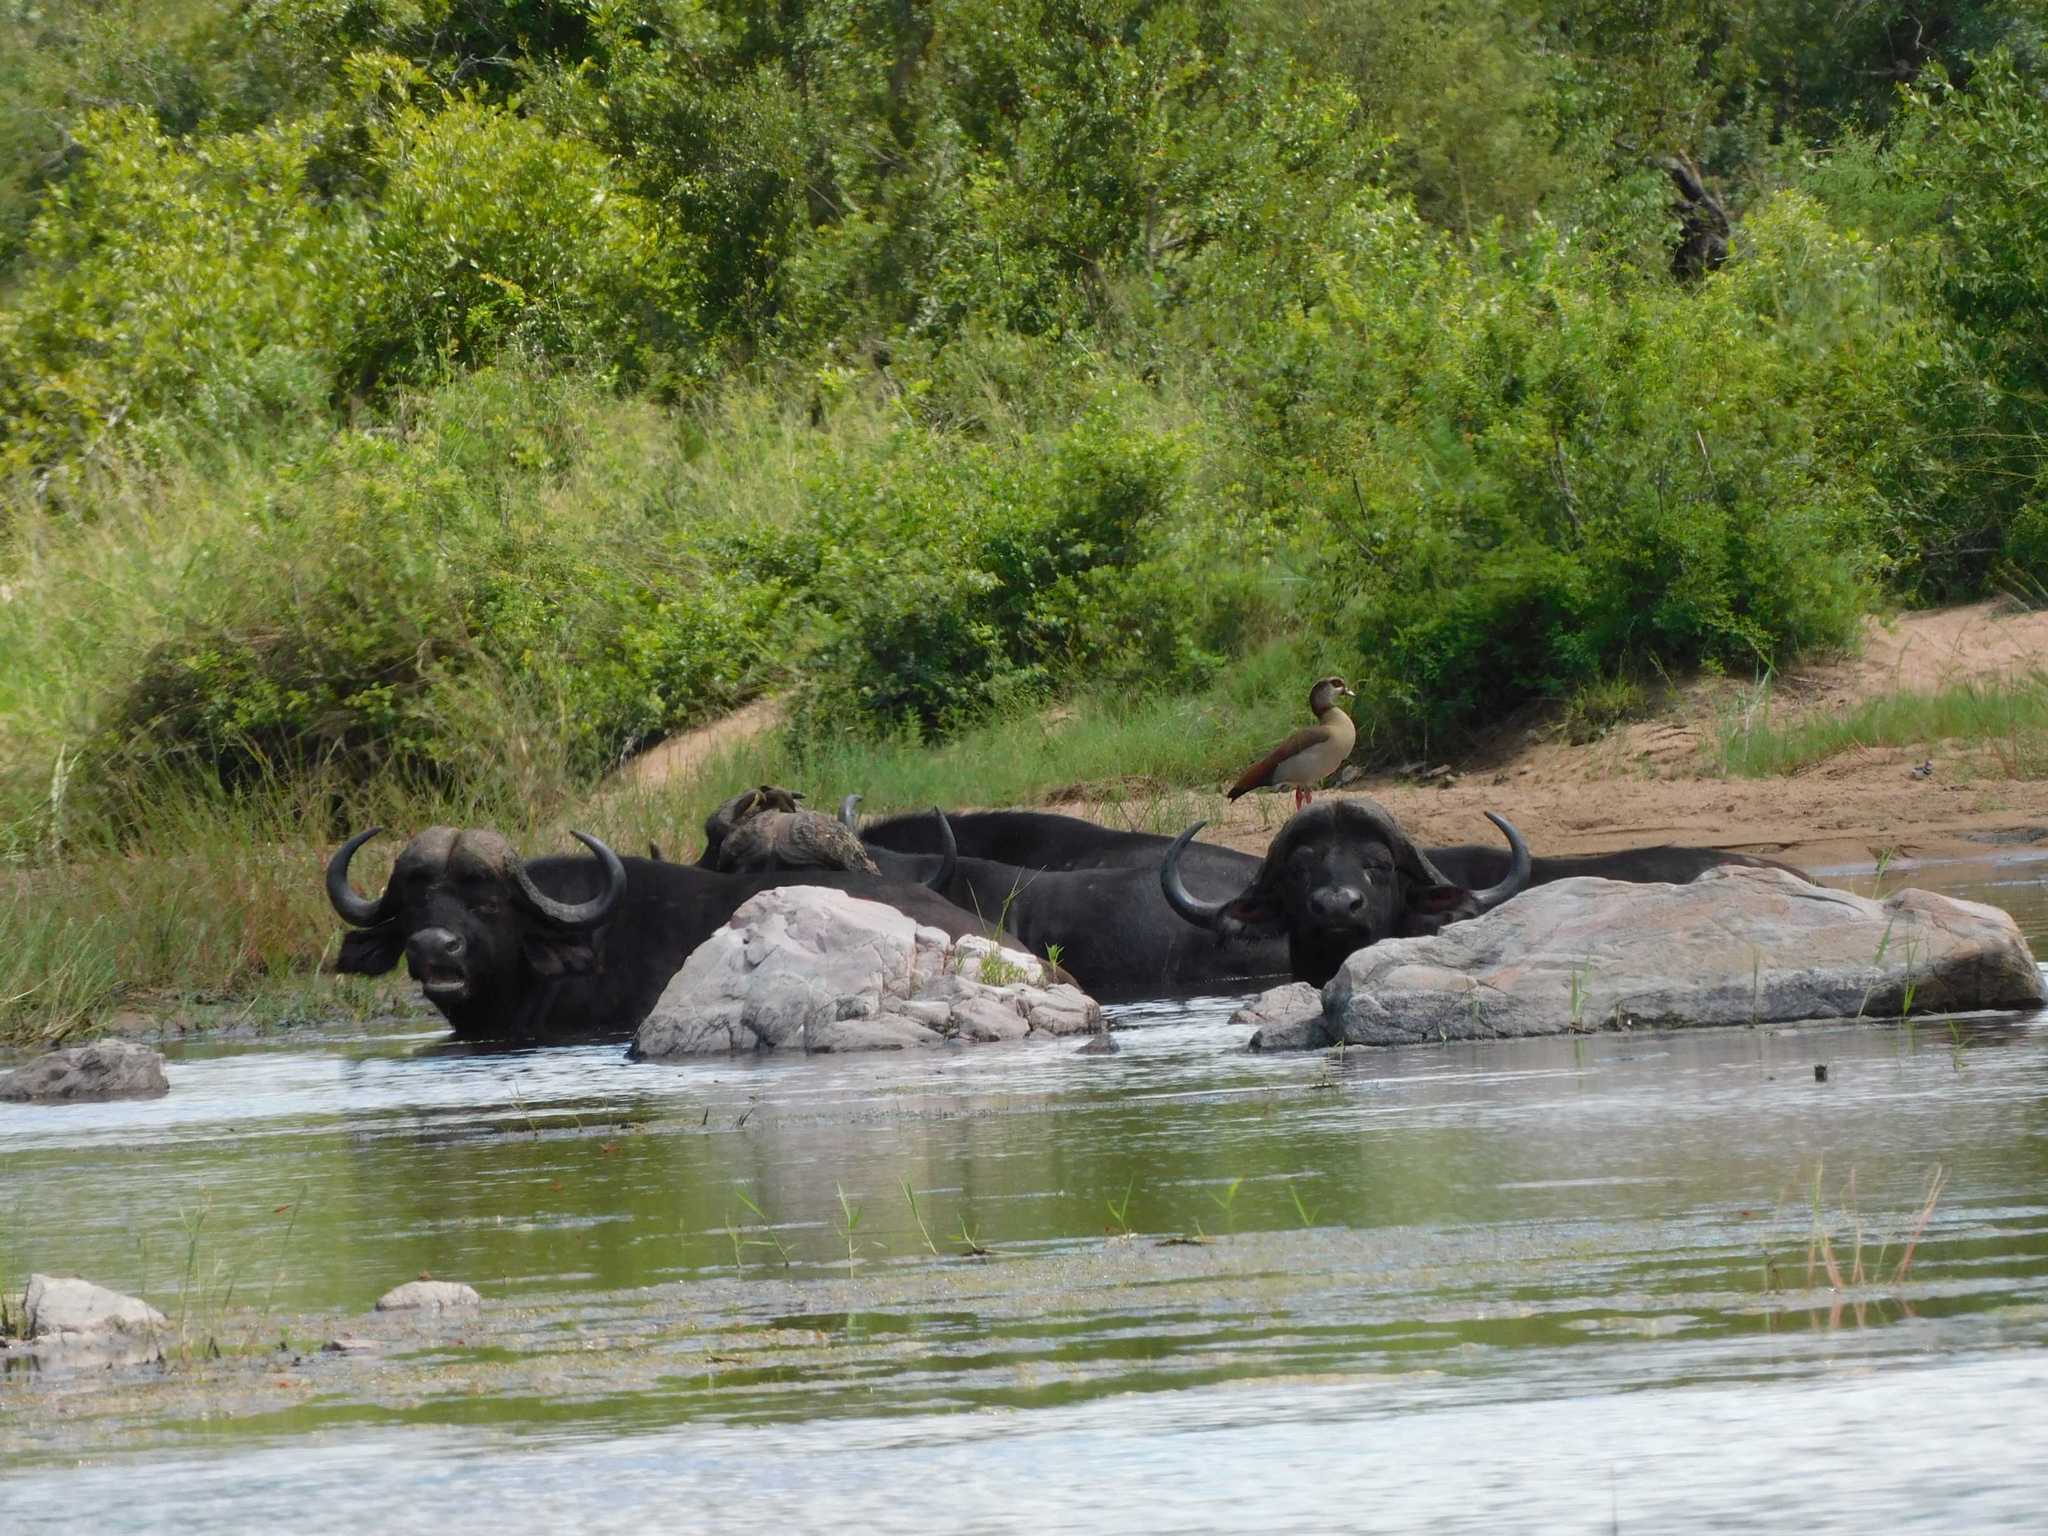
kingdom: Animalia
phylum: Chordata
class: Mammalia
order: Artiodactyla
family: Bovidae
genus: Syncerus
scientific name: Syncerus caffer
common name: African buffalo
